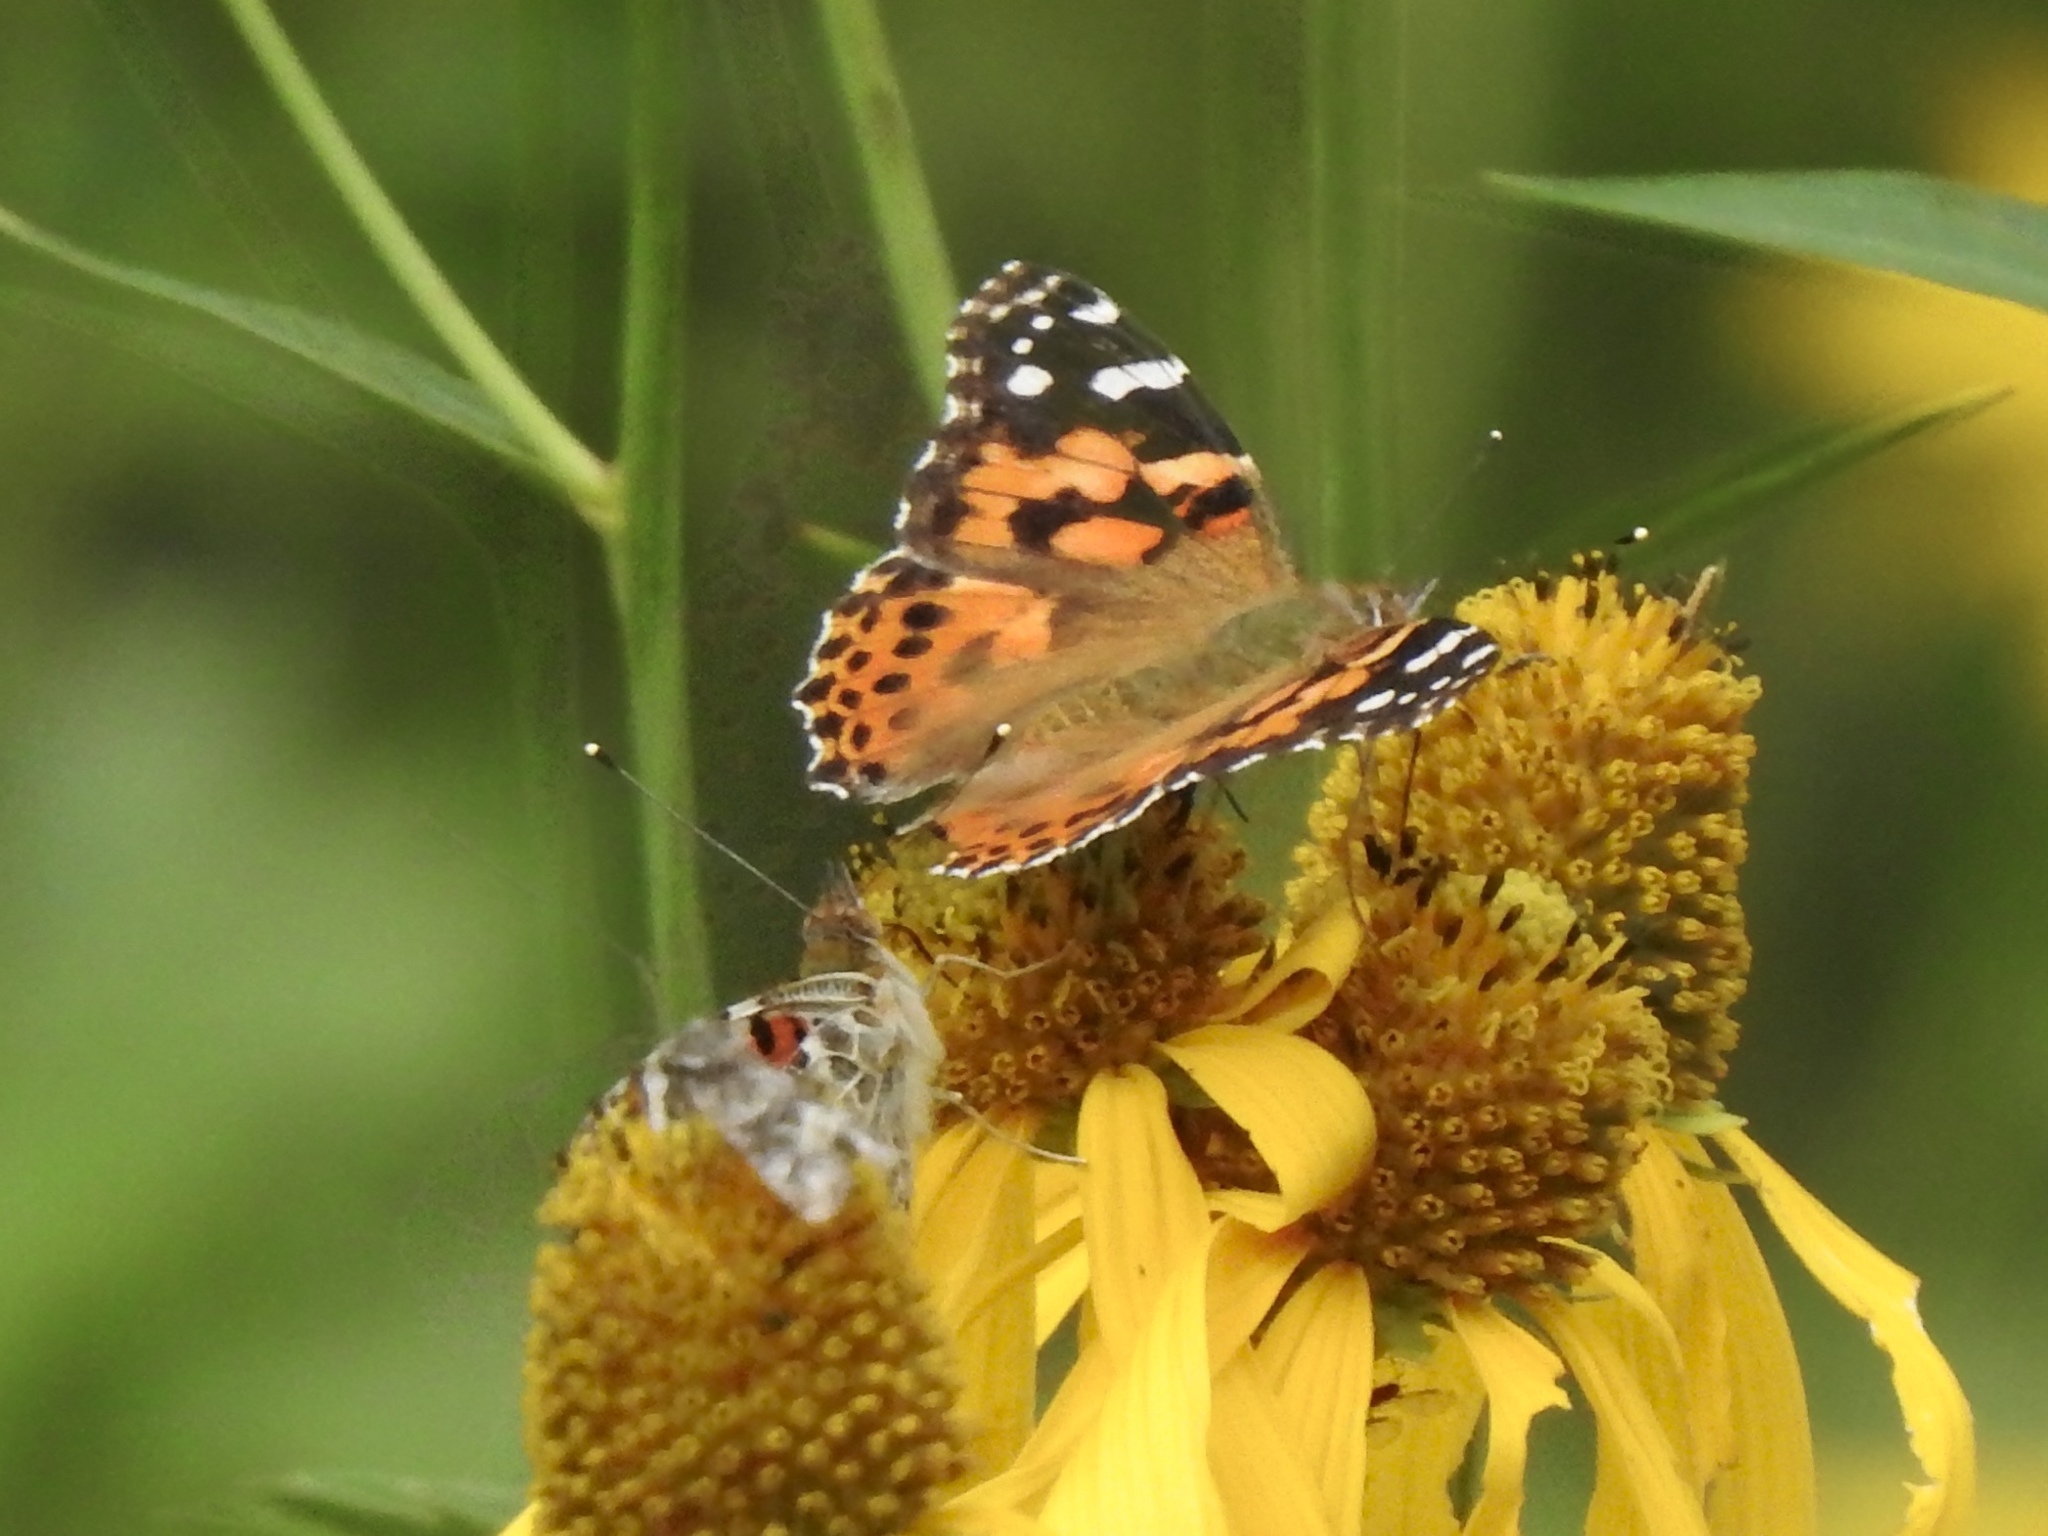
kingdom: Animalia
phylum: Arthropoda
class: Insecta
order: Lepidoptera
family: Nymphalidae
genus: Vanessa
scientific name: Vanessa cardui
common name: Painted lady
